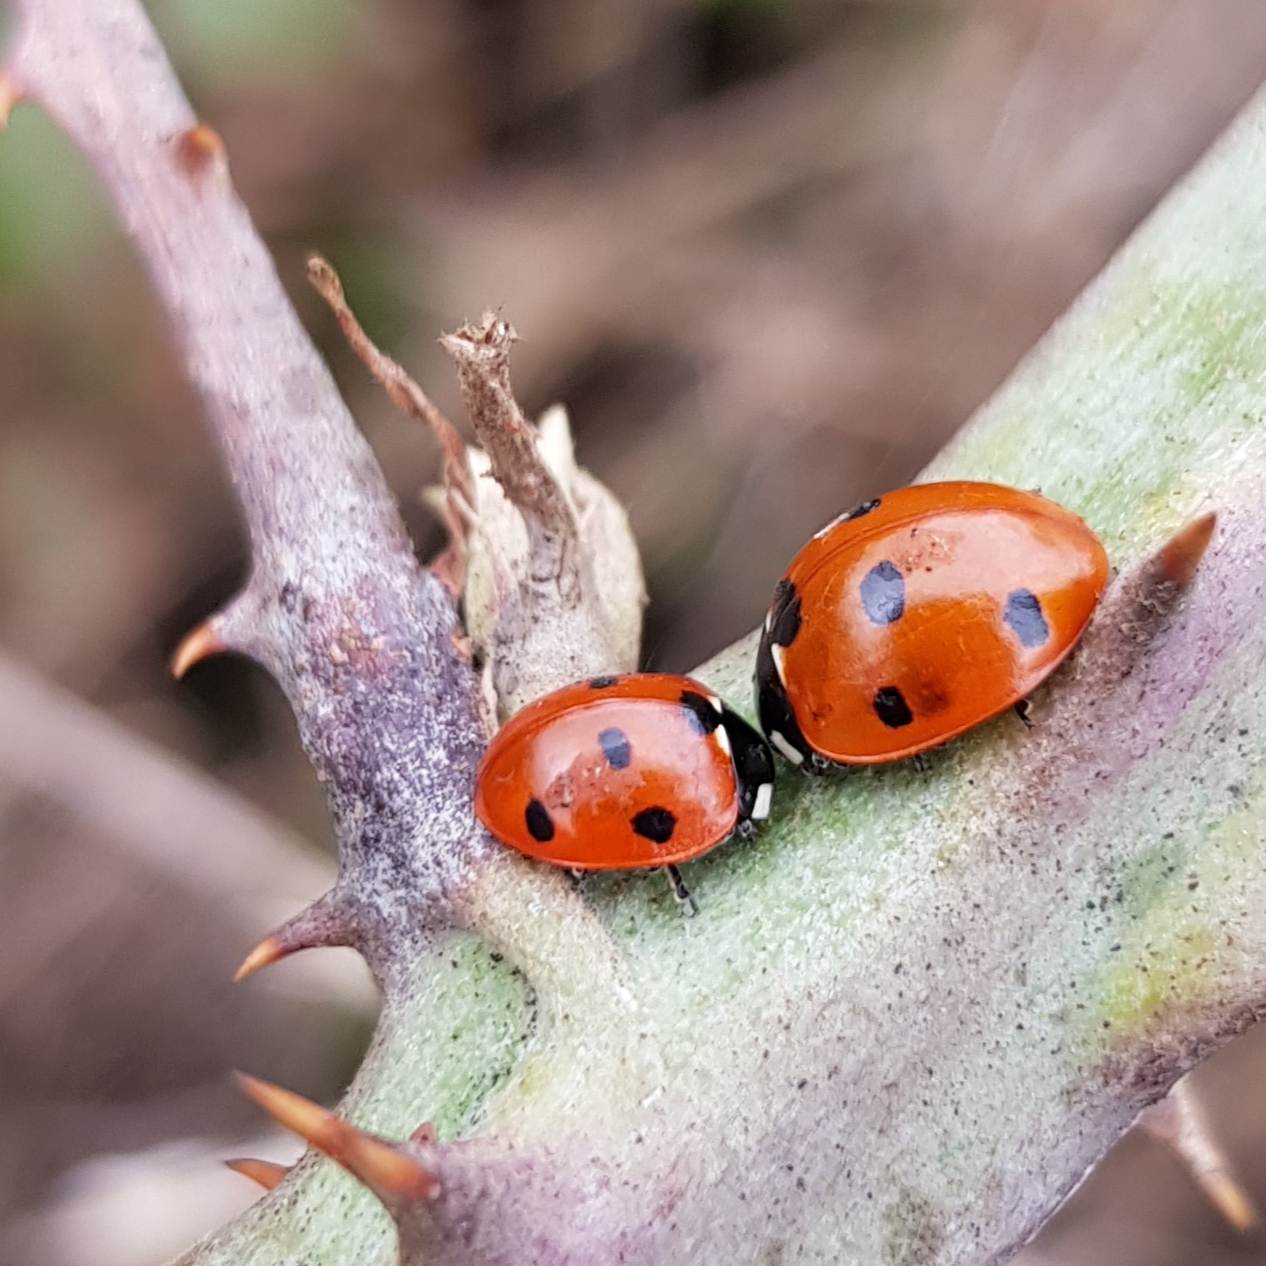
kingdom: Animalia
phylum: Arthropoda
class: Insecta
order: Coleoptera
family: Coccinellidae
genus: Coccinella
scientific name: Coccinella septempunctata
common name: Sevenspotted lady beetle
